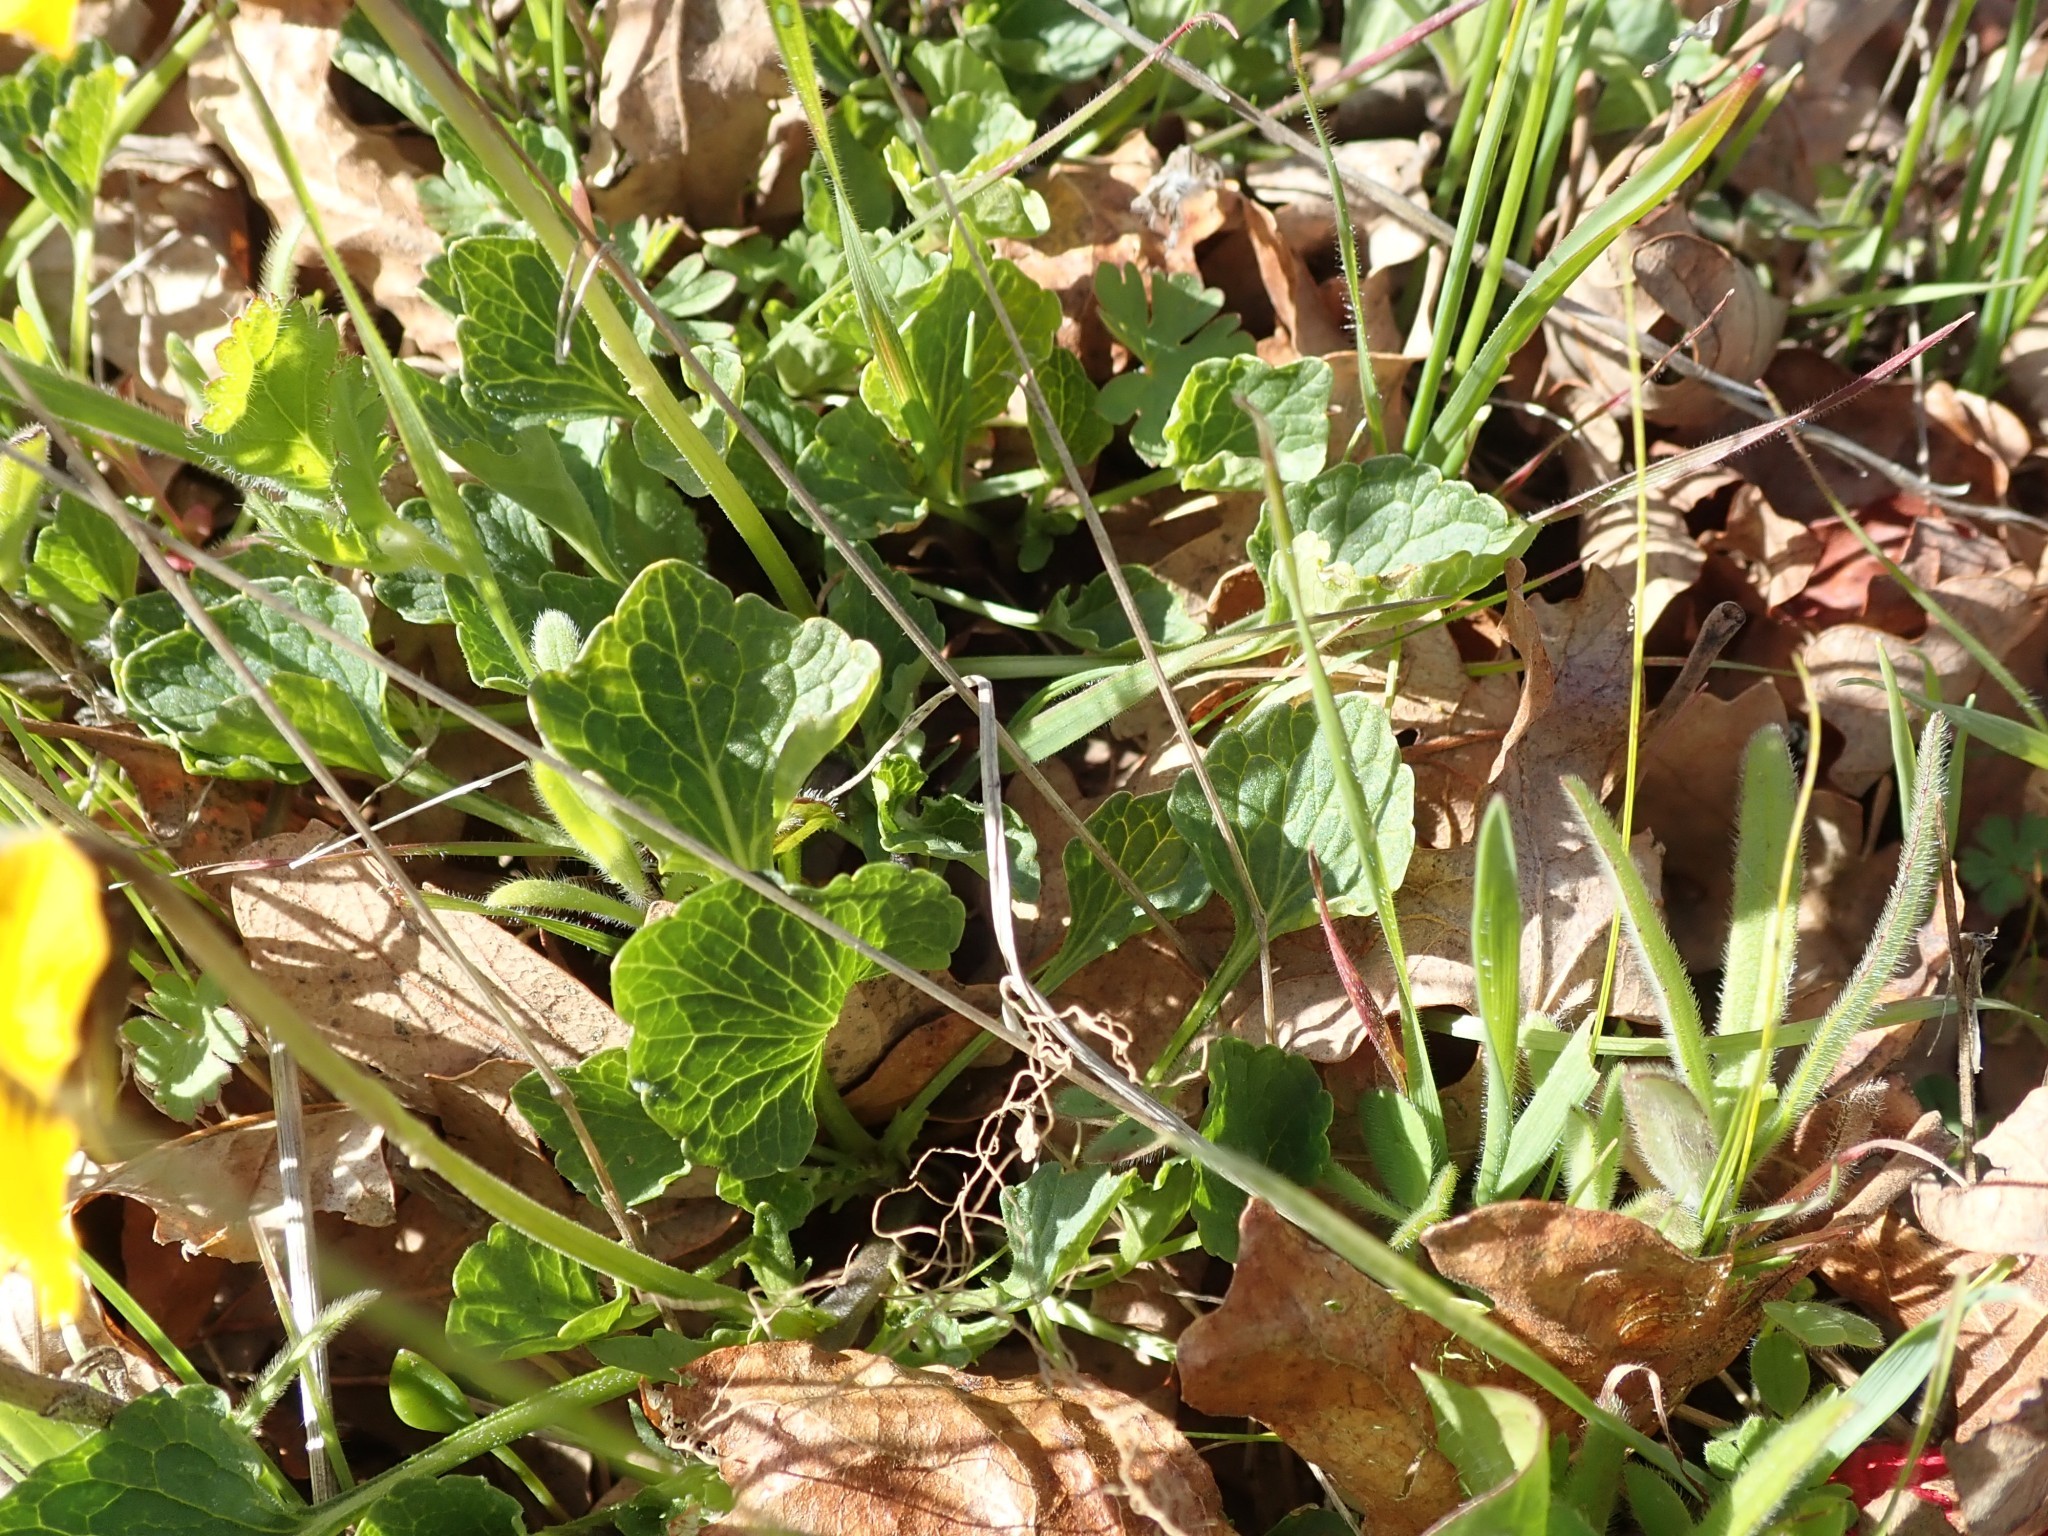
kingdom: Plantae
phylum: Tracheophyta
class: Magnoliopsida
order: Malpighiales
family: Violaceae
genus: Viola
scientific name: Viola pedunculata
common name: California golden violet
